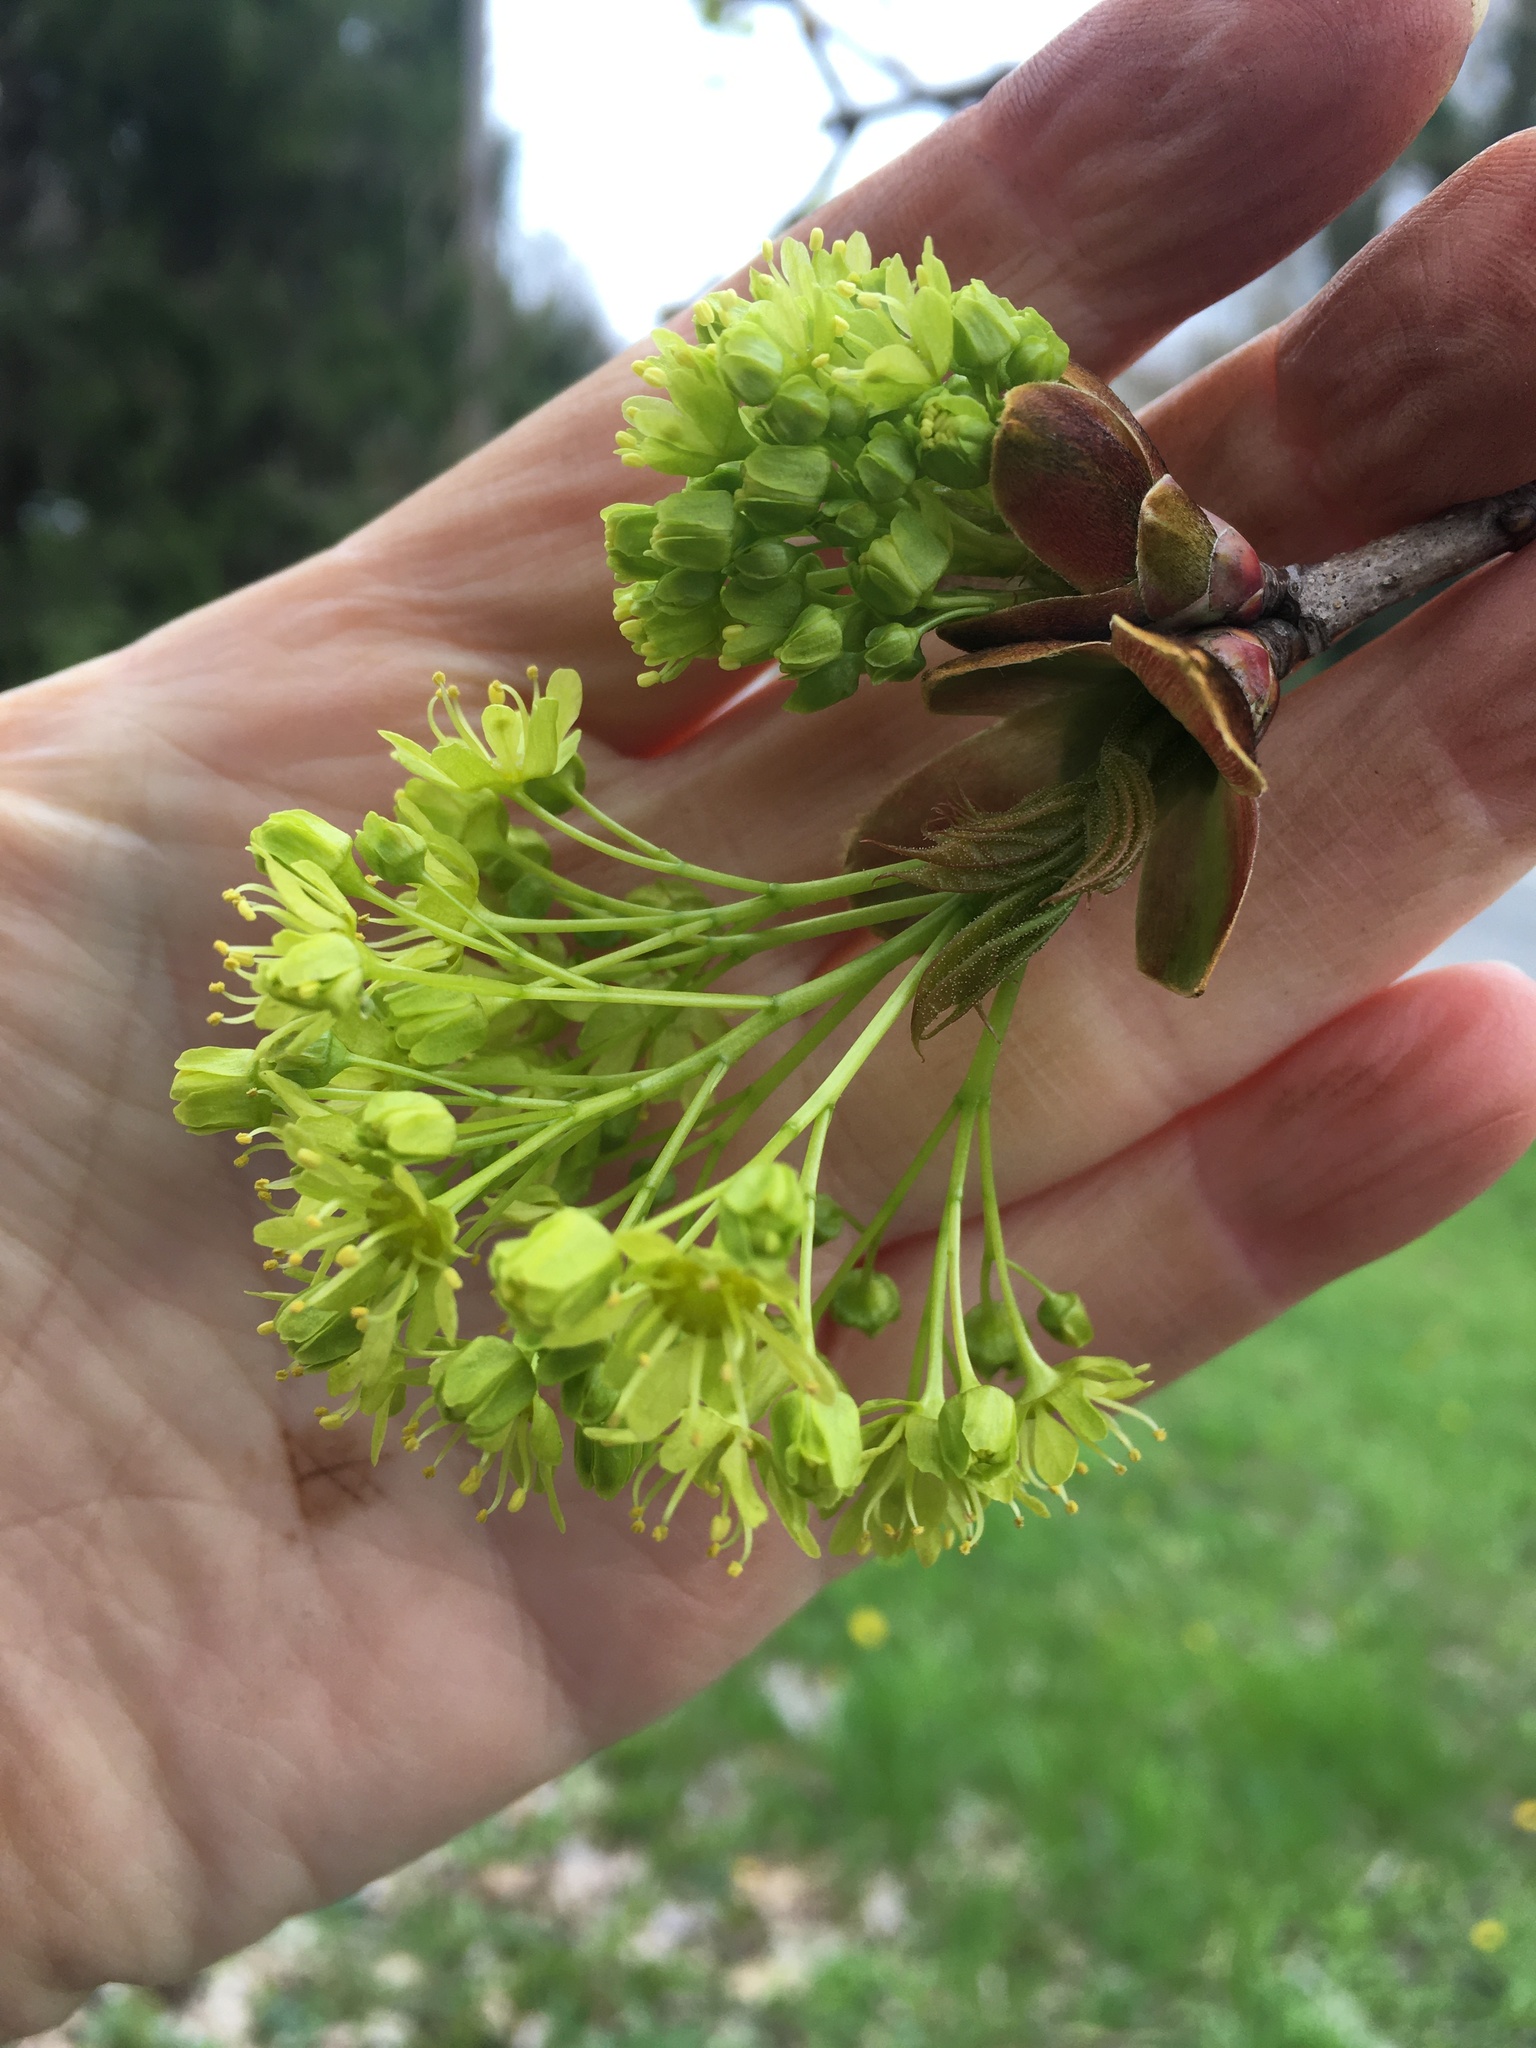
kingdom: Plantae
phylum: Tracheophyta
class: Magnoliopsida
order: Sapindales
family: Sapindaceae
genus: Acer
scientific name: Acer platanoides
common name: Norway maple
